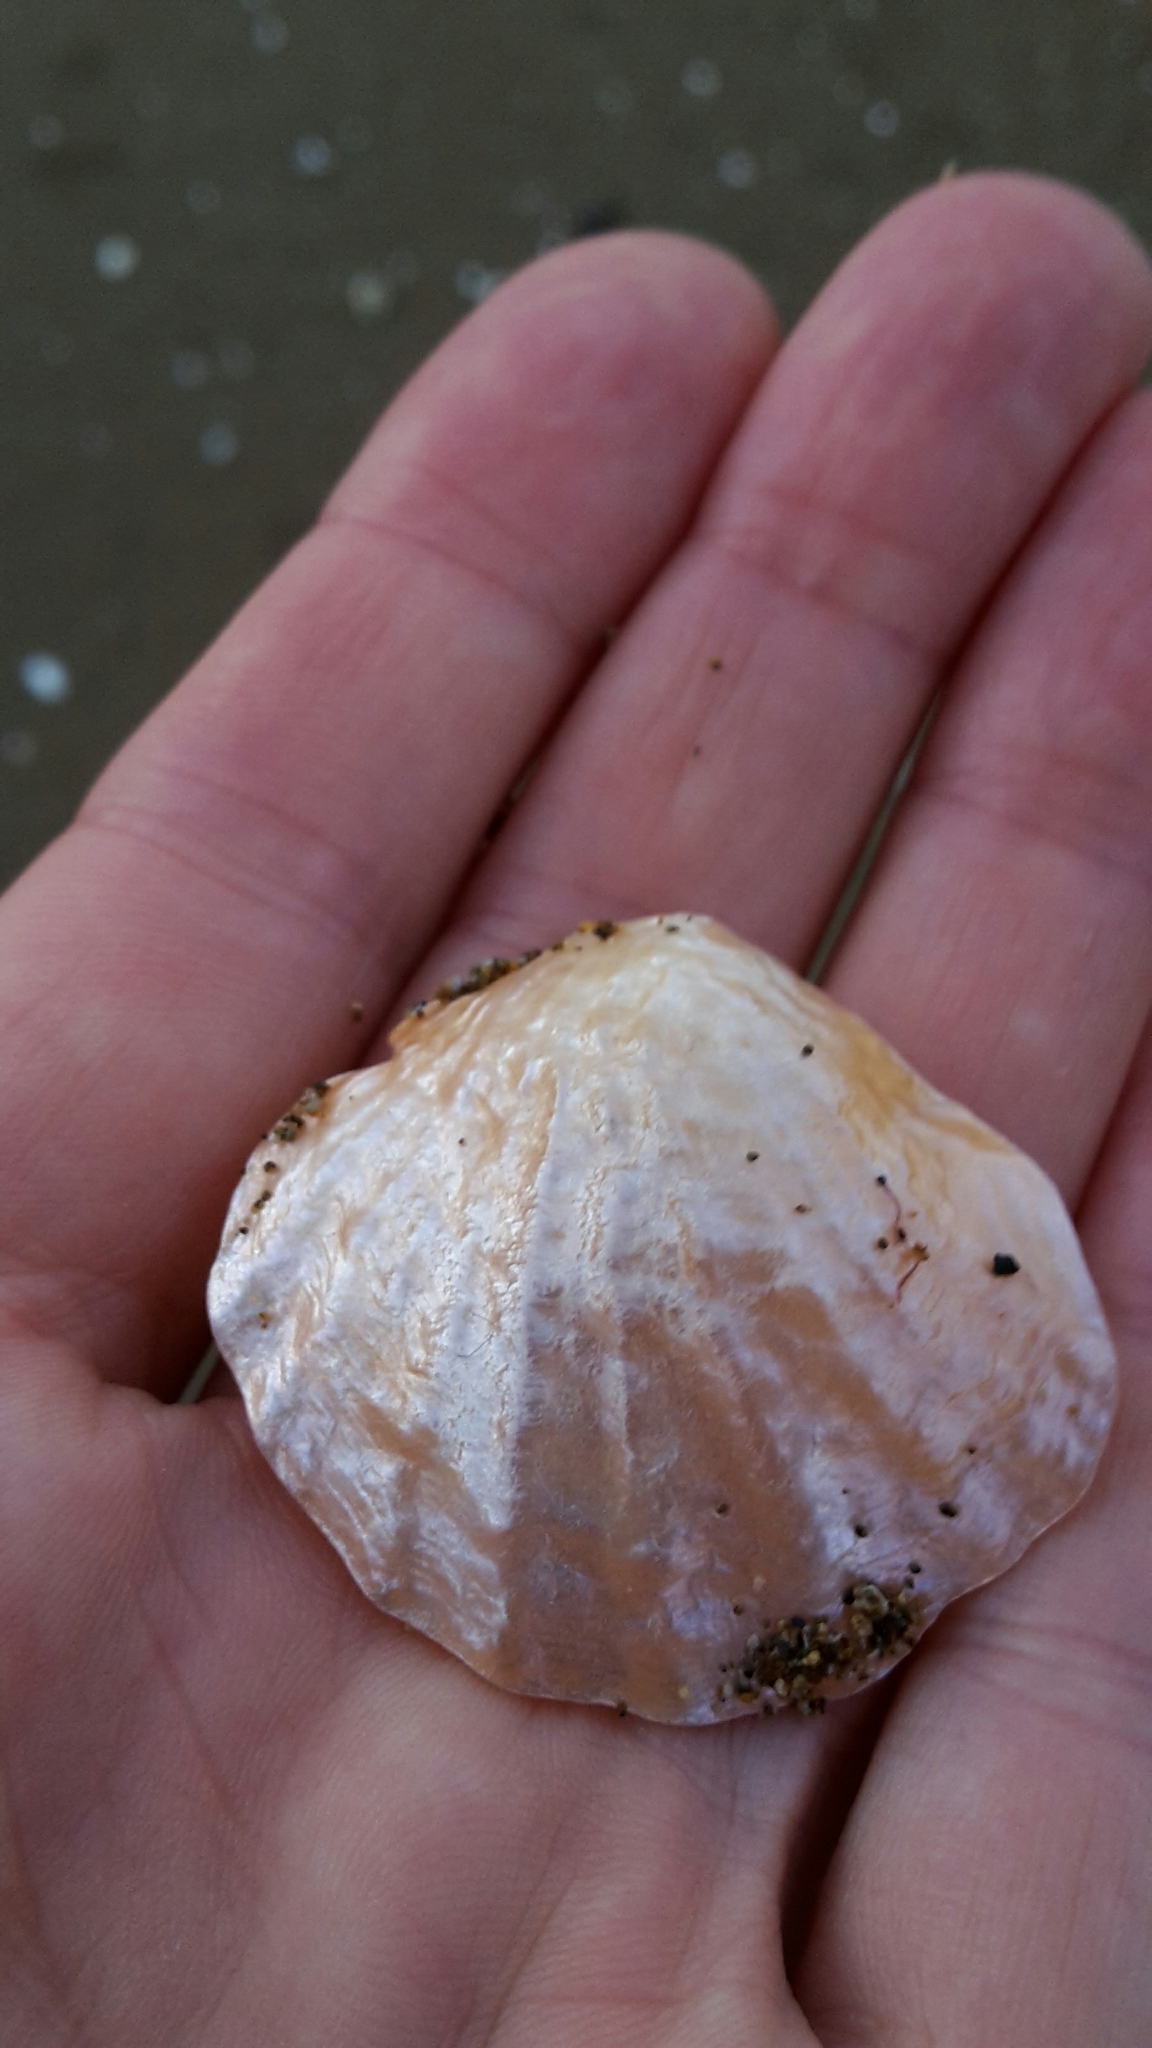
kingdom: Animalia
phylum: Mollusca
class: Bivalvia
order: Pectinida
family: Anomiidae
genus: Anomia
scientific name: Anomia trigonopsis
